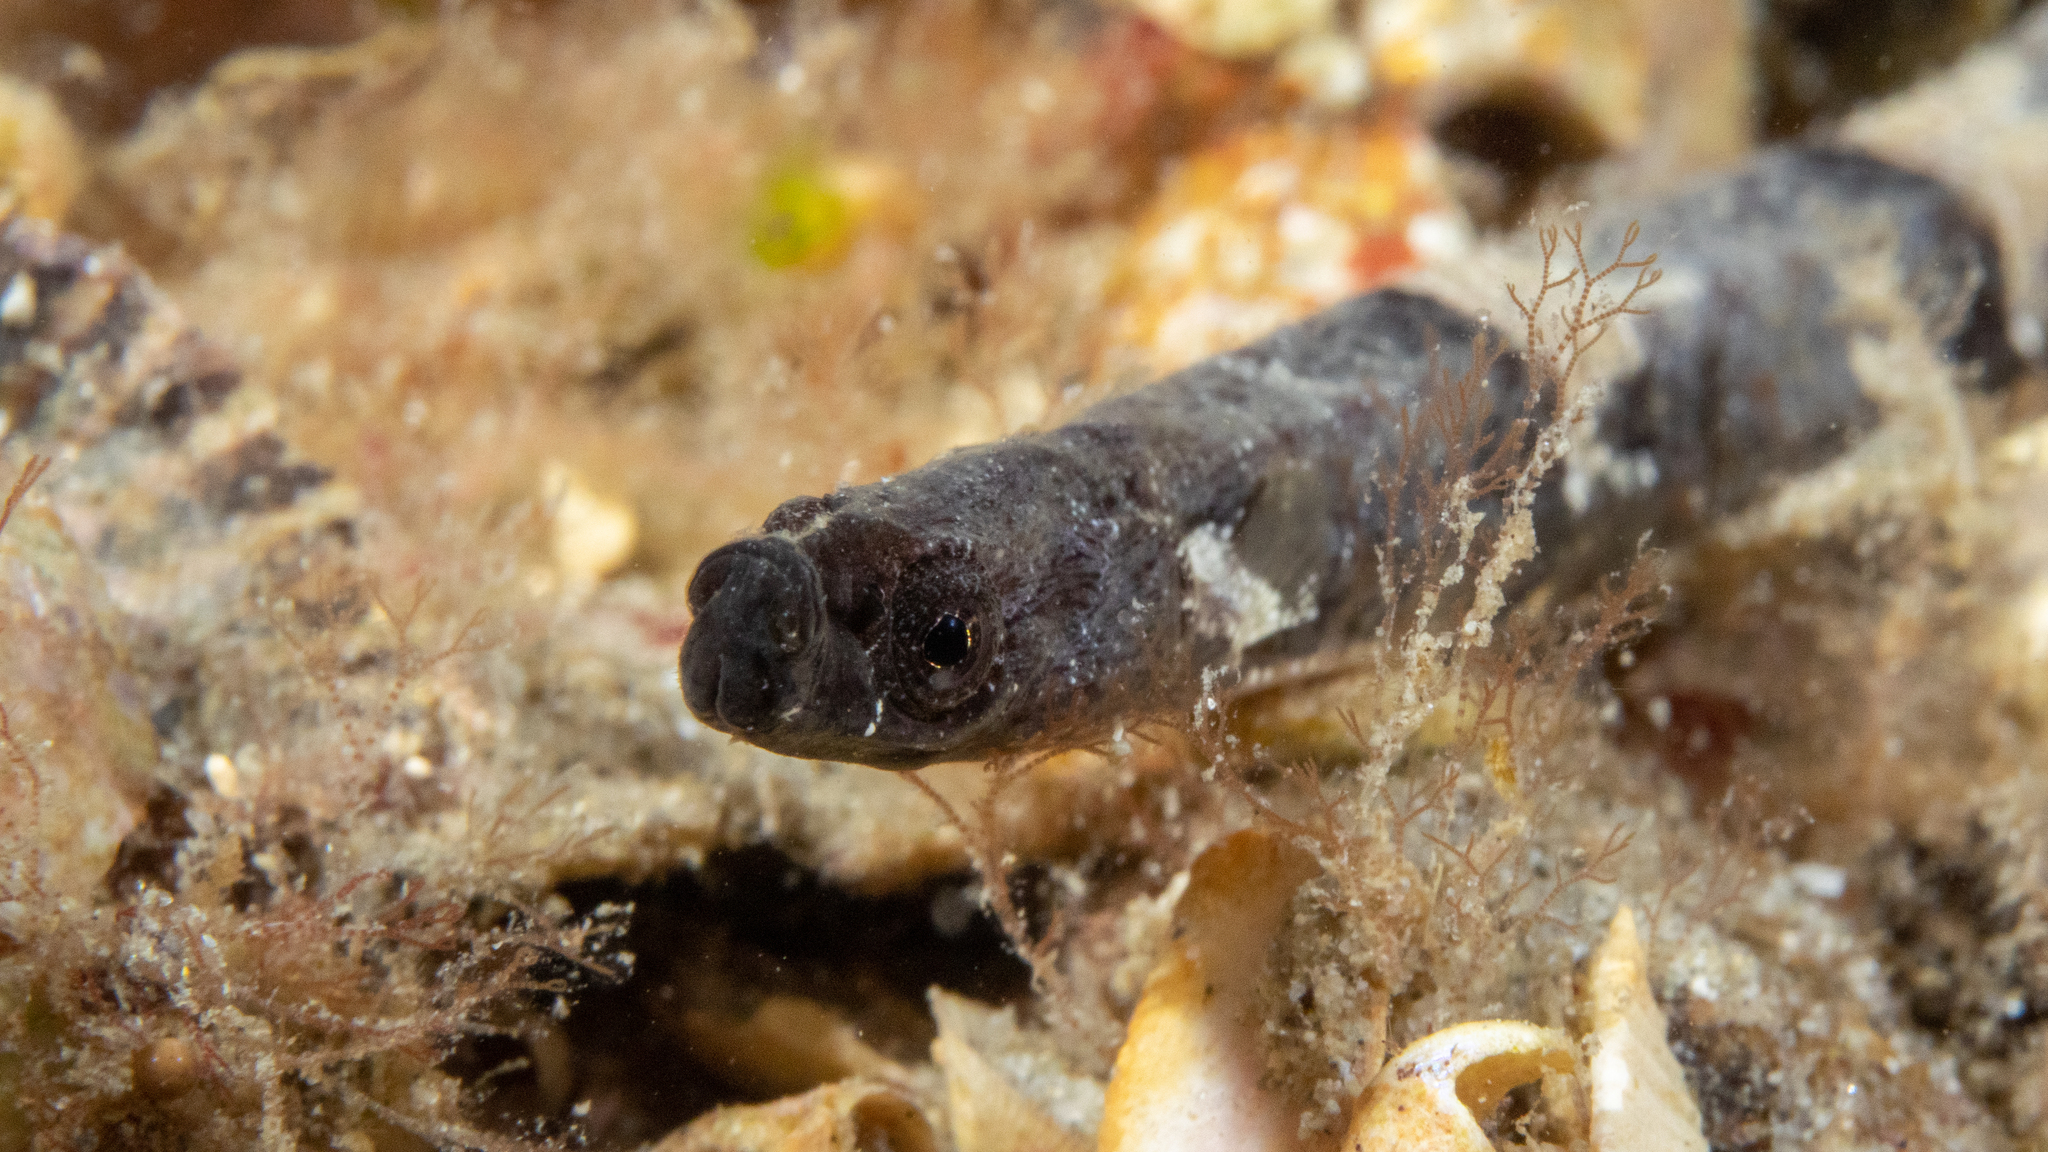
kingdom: Animalia
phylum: Chordata
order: Syngnathiformes
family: Syngnathidae
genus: Stipecampus
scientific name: Stipecampus cristatus
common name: Crested pipefish
